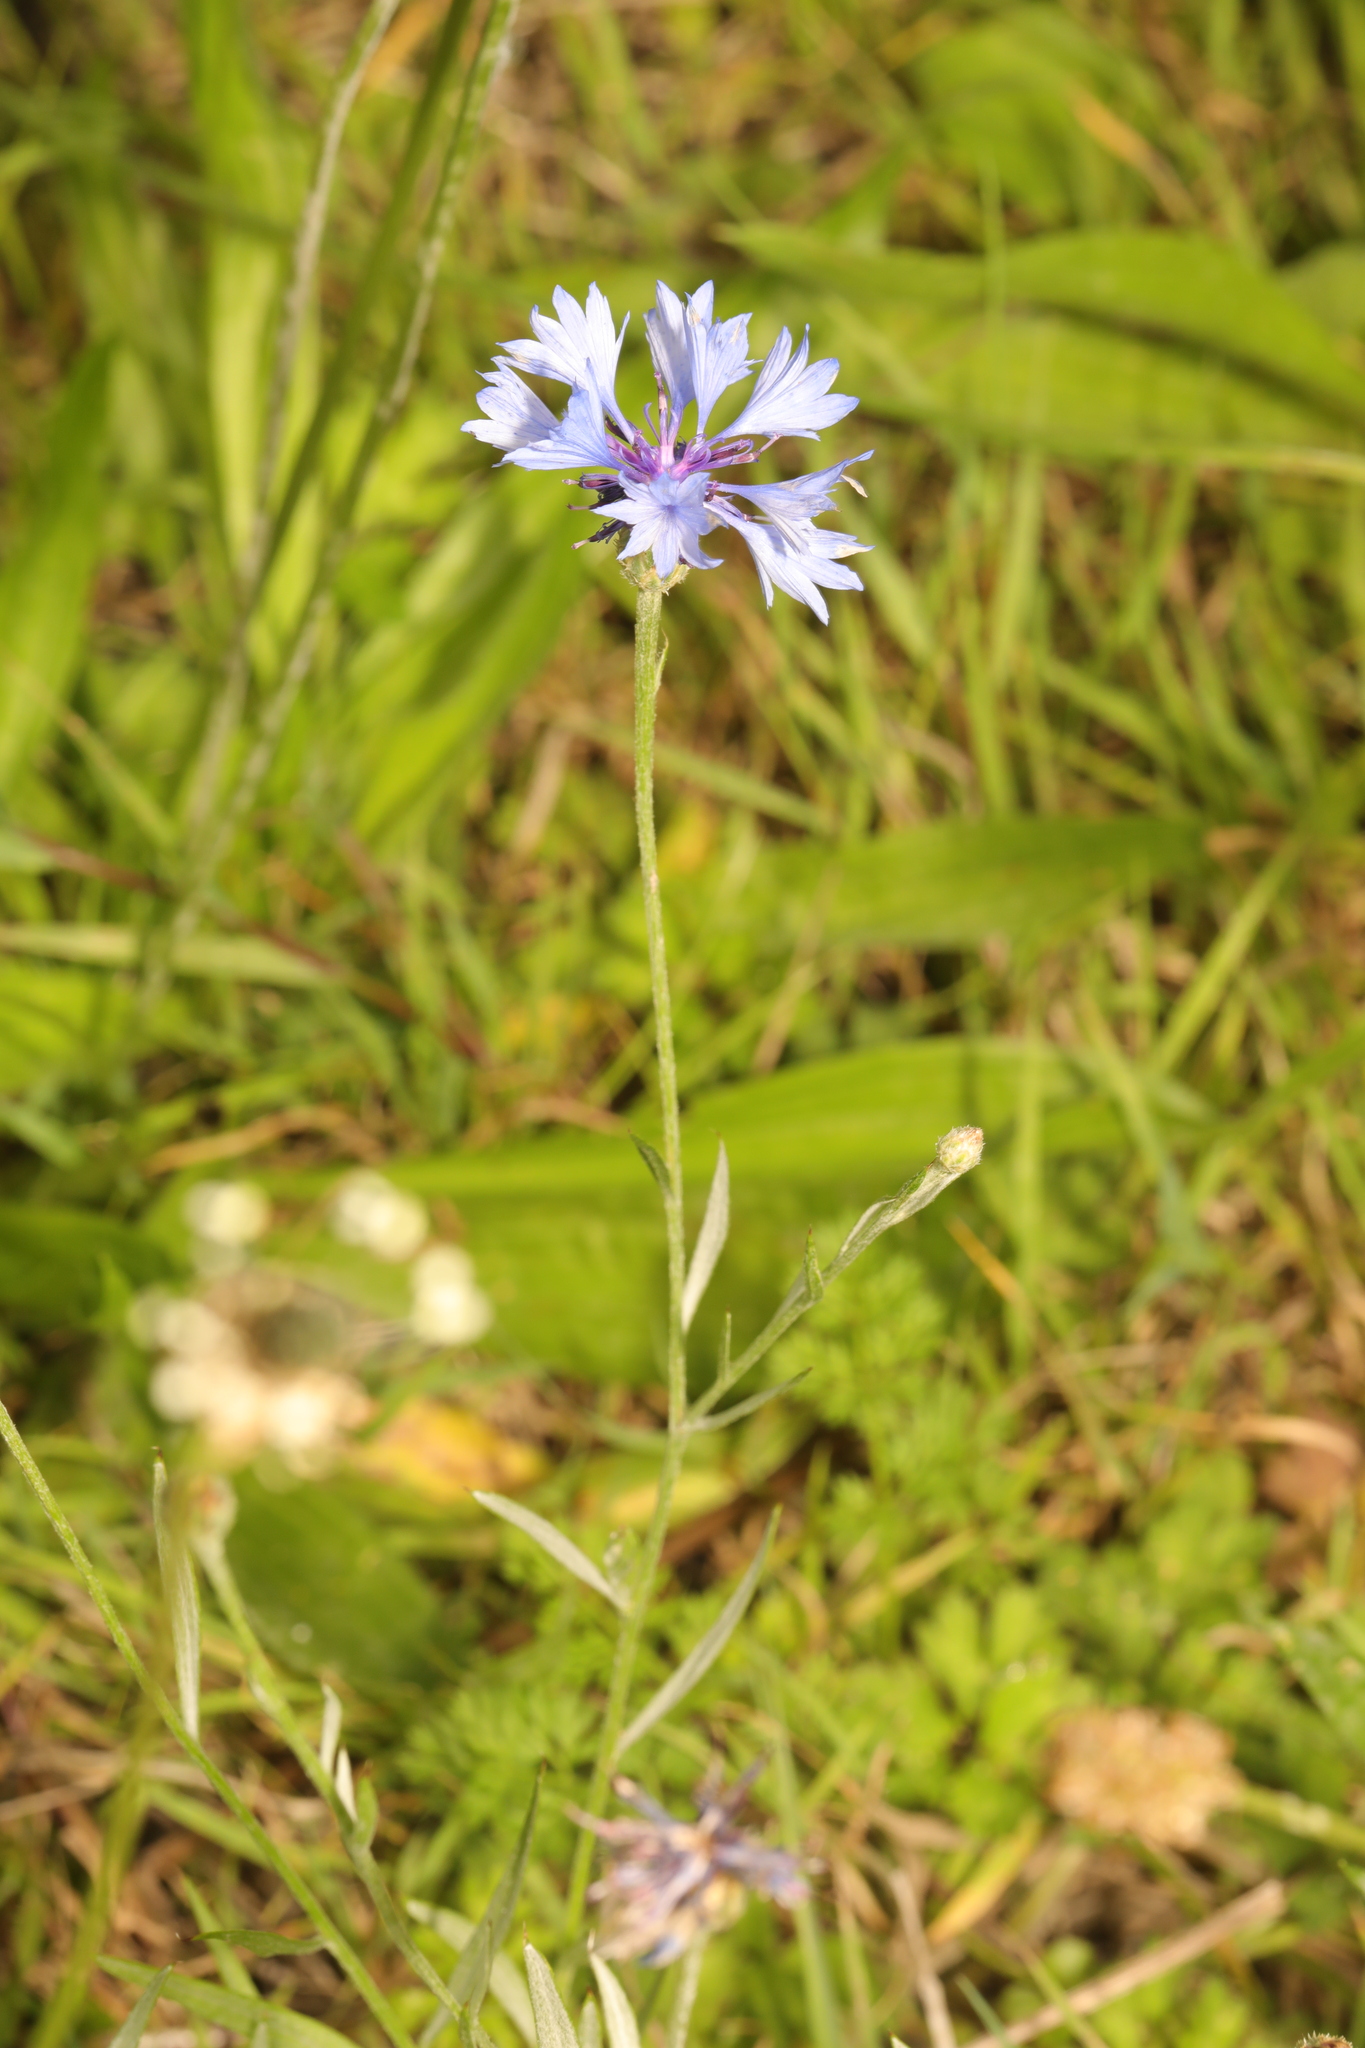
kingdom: Plantae
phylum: Tracheophyta
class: Magnoliopsida
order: Asterales
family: Asteraceae
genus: Centaurea
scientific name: Centaurea cyanus
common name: Cornflower
